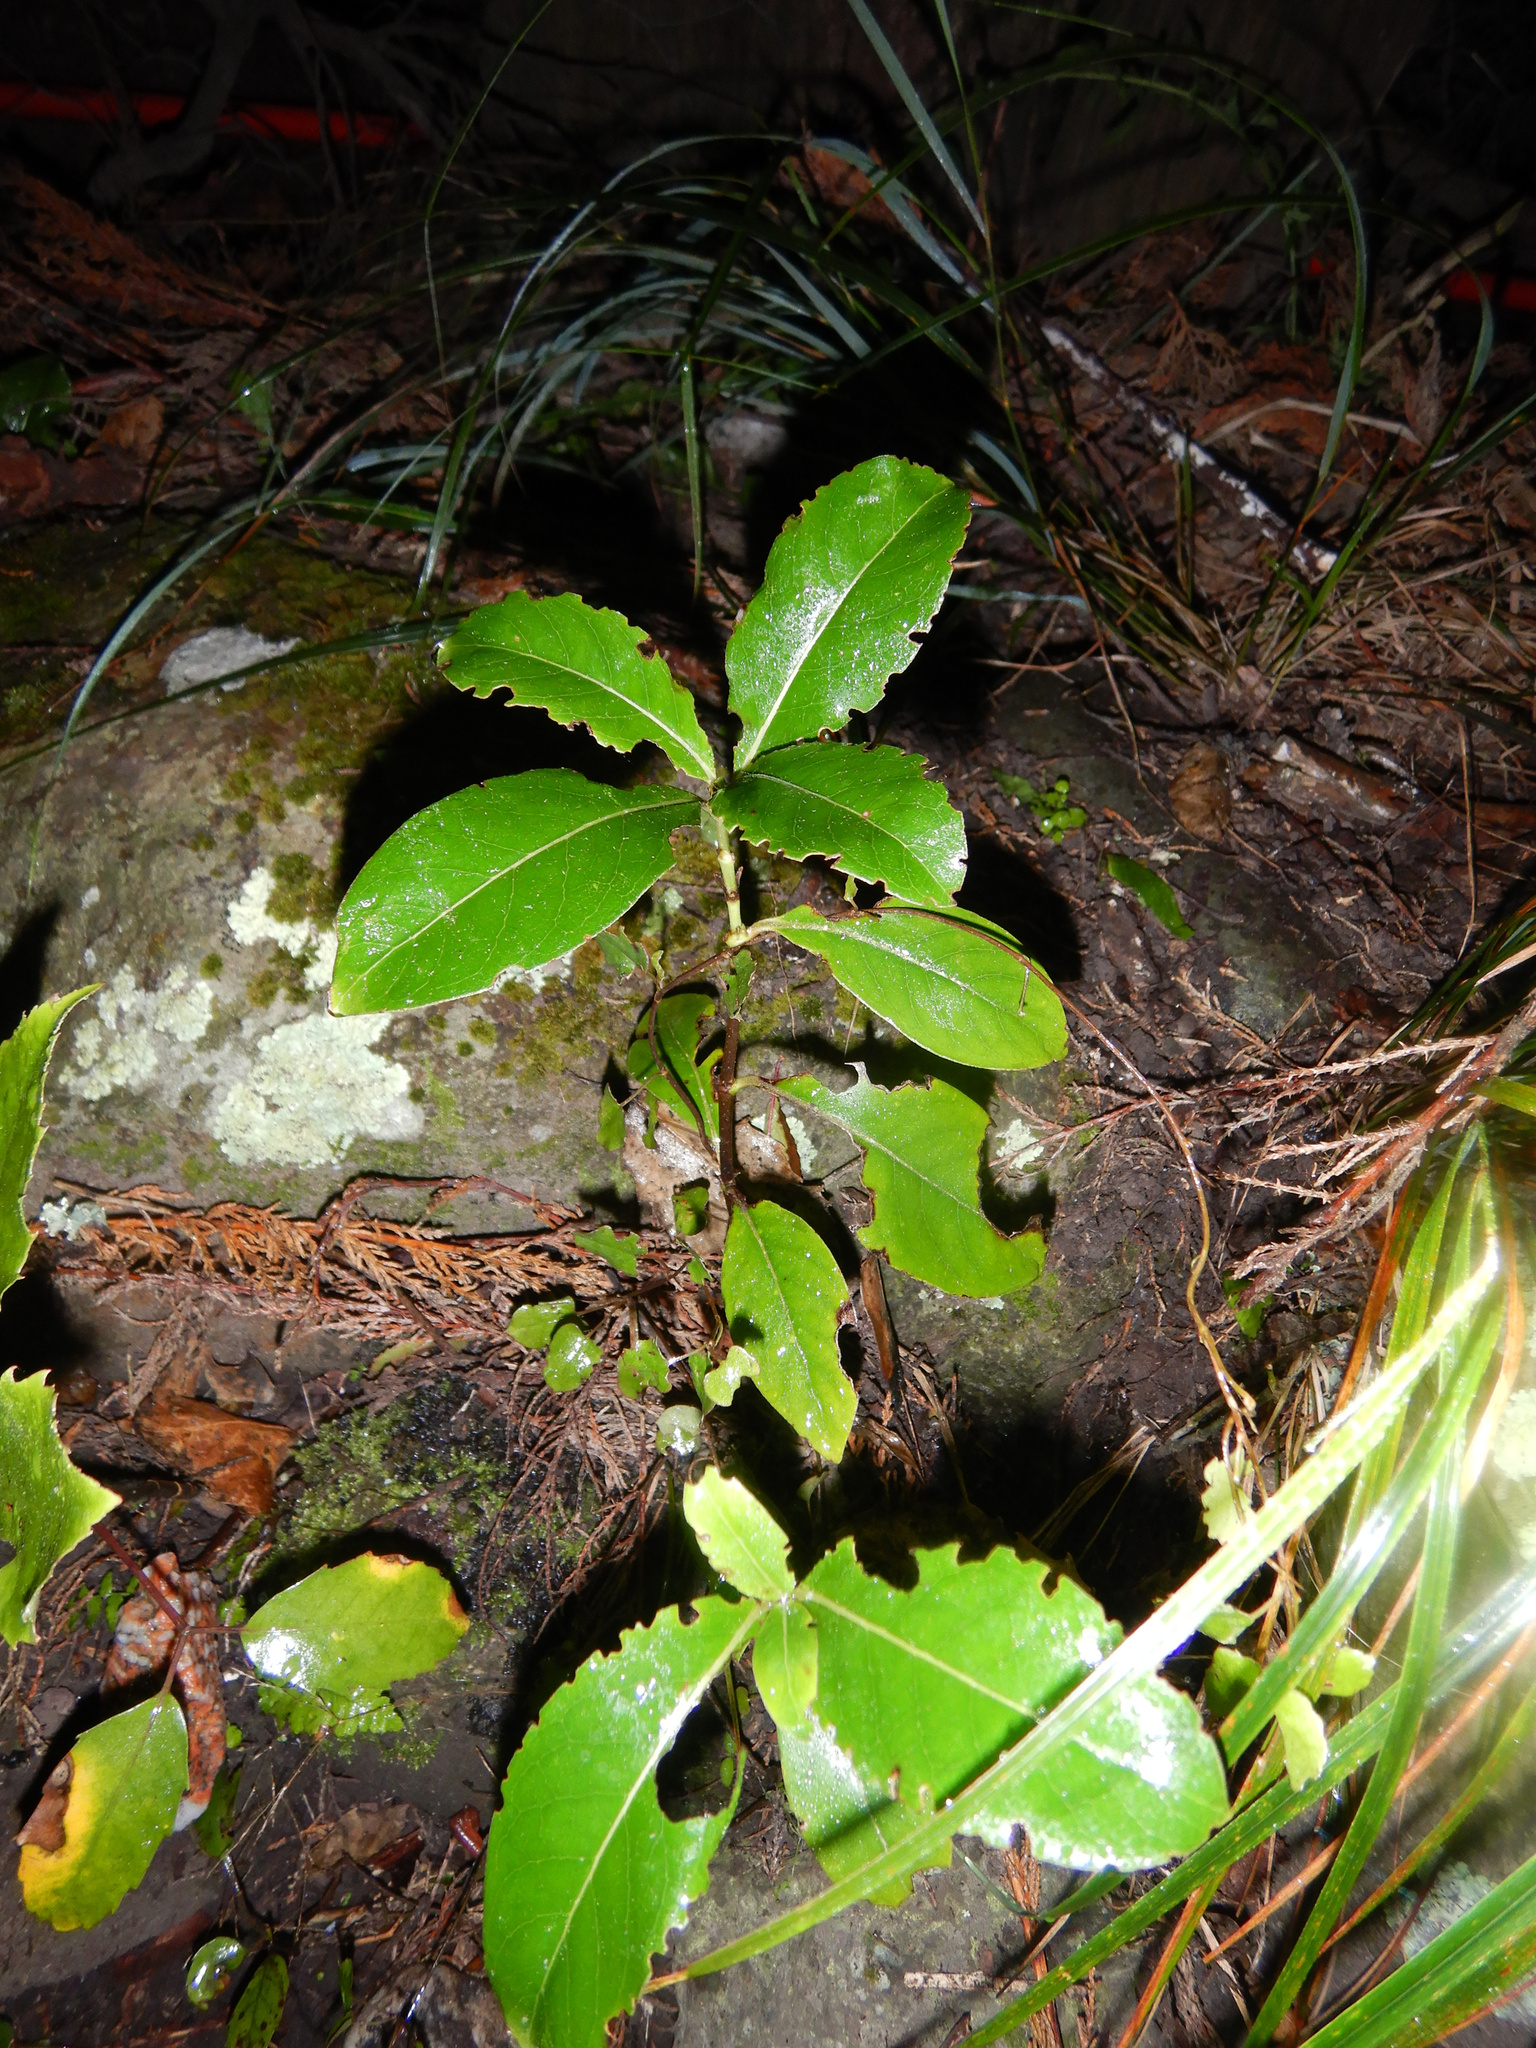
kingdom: Plantae
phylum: Tracheophyta
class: Magnoliopsida
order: Gentianales
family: Rubiaceae
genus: Coprosma
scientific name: Coprosma robusta
